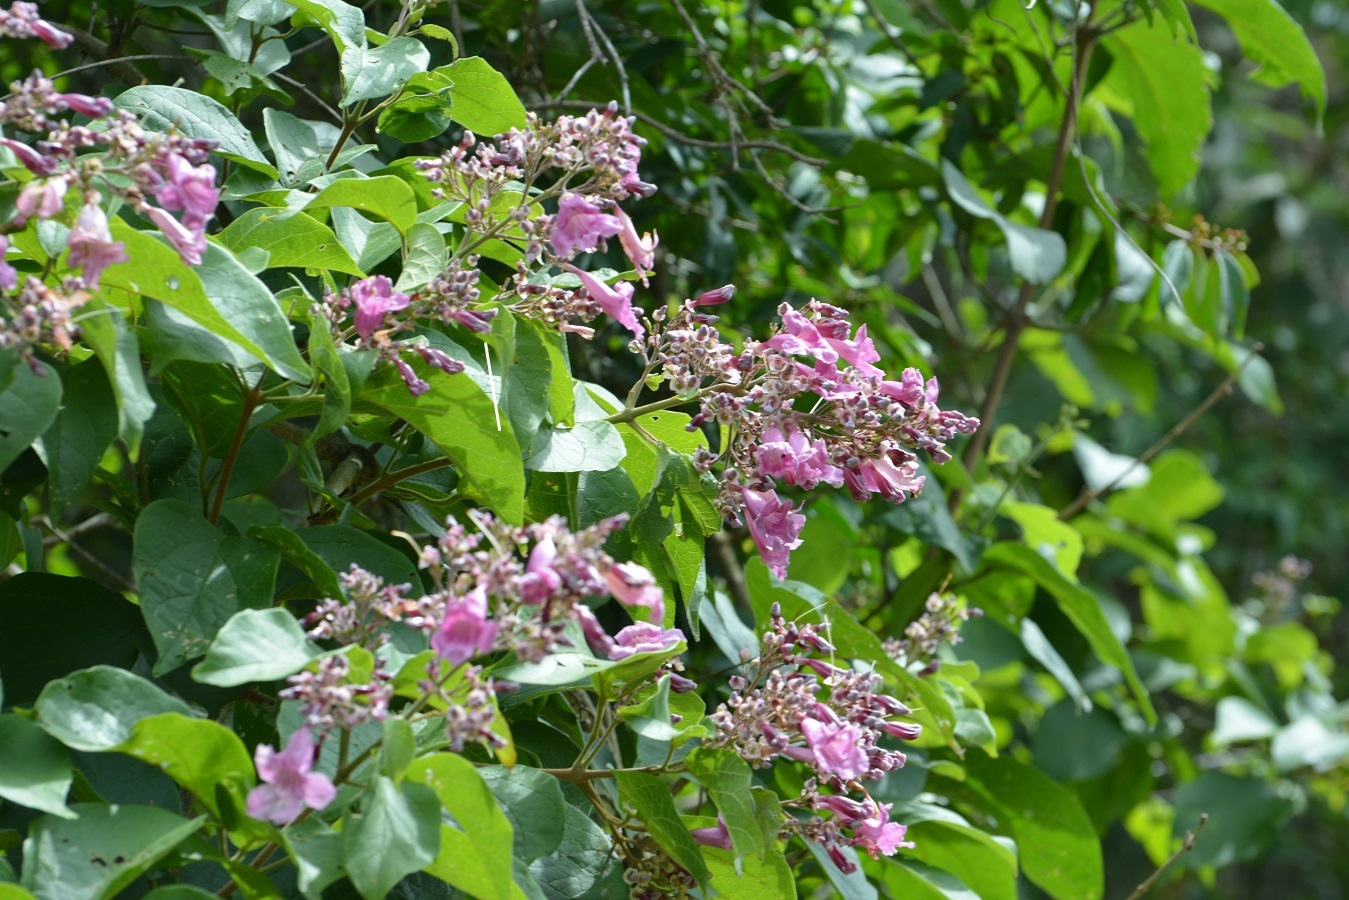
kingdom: Plantae
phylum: Tracheophyta
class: Magnoliopsida
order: Lamiales
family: Bignoniaceae
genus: Fridericia
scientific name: Fridericia chica
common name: Cricketvine
